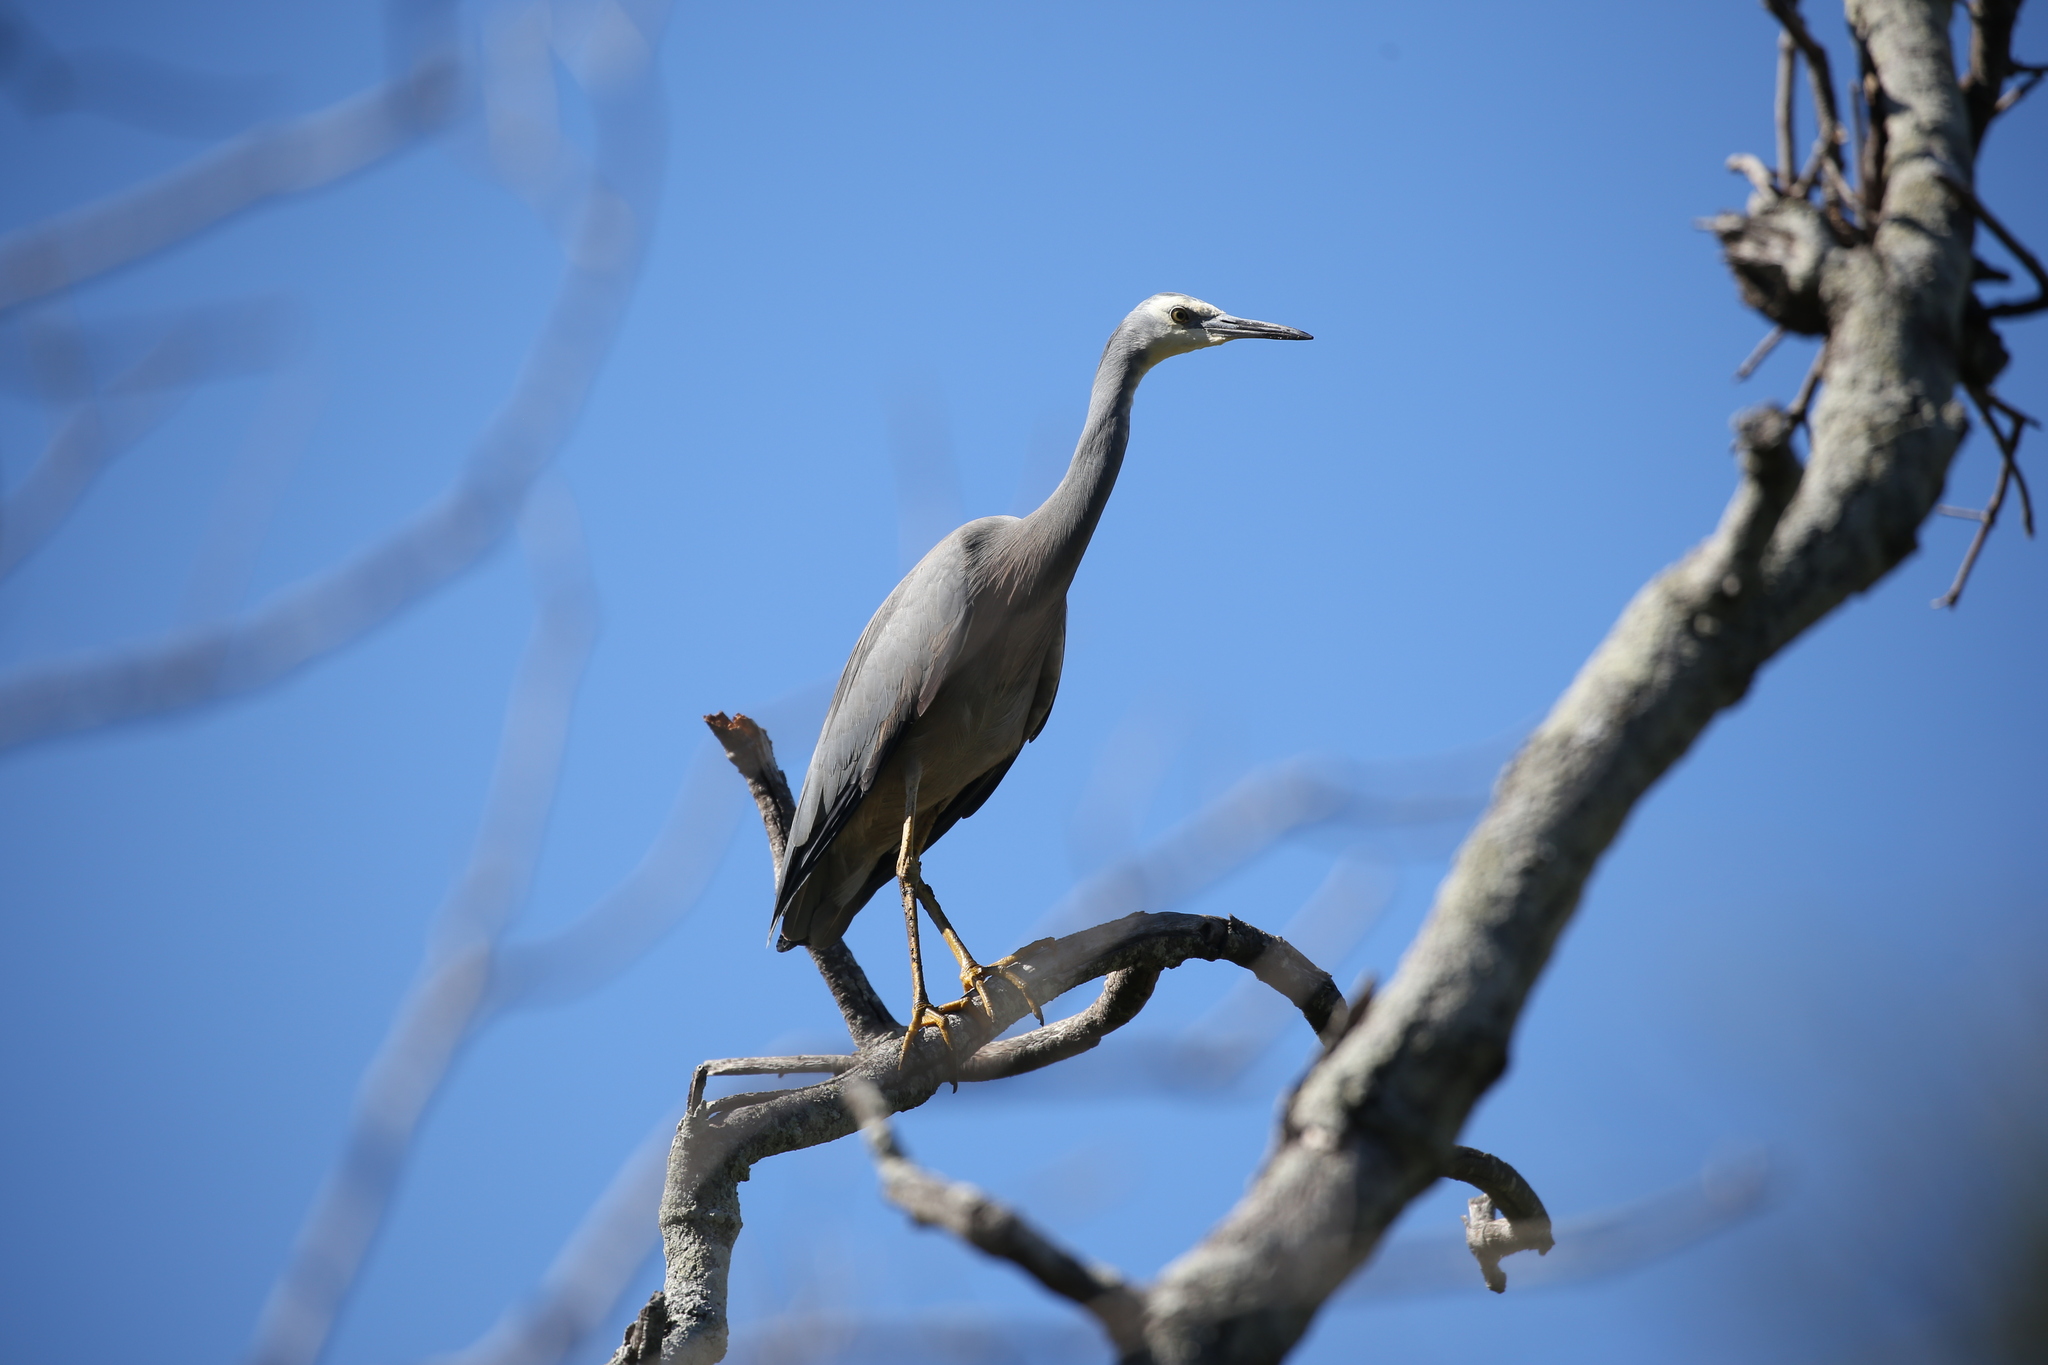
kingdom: Animalia
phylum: Chordata
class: Aves
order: Pelecaniformes
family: Ardeidae
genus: Egretta
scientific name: Egretta novaehollandiae
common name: White-faced heron
